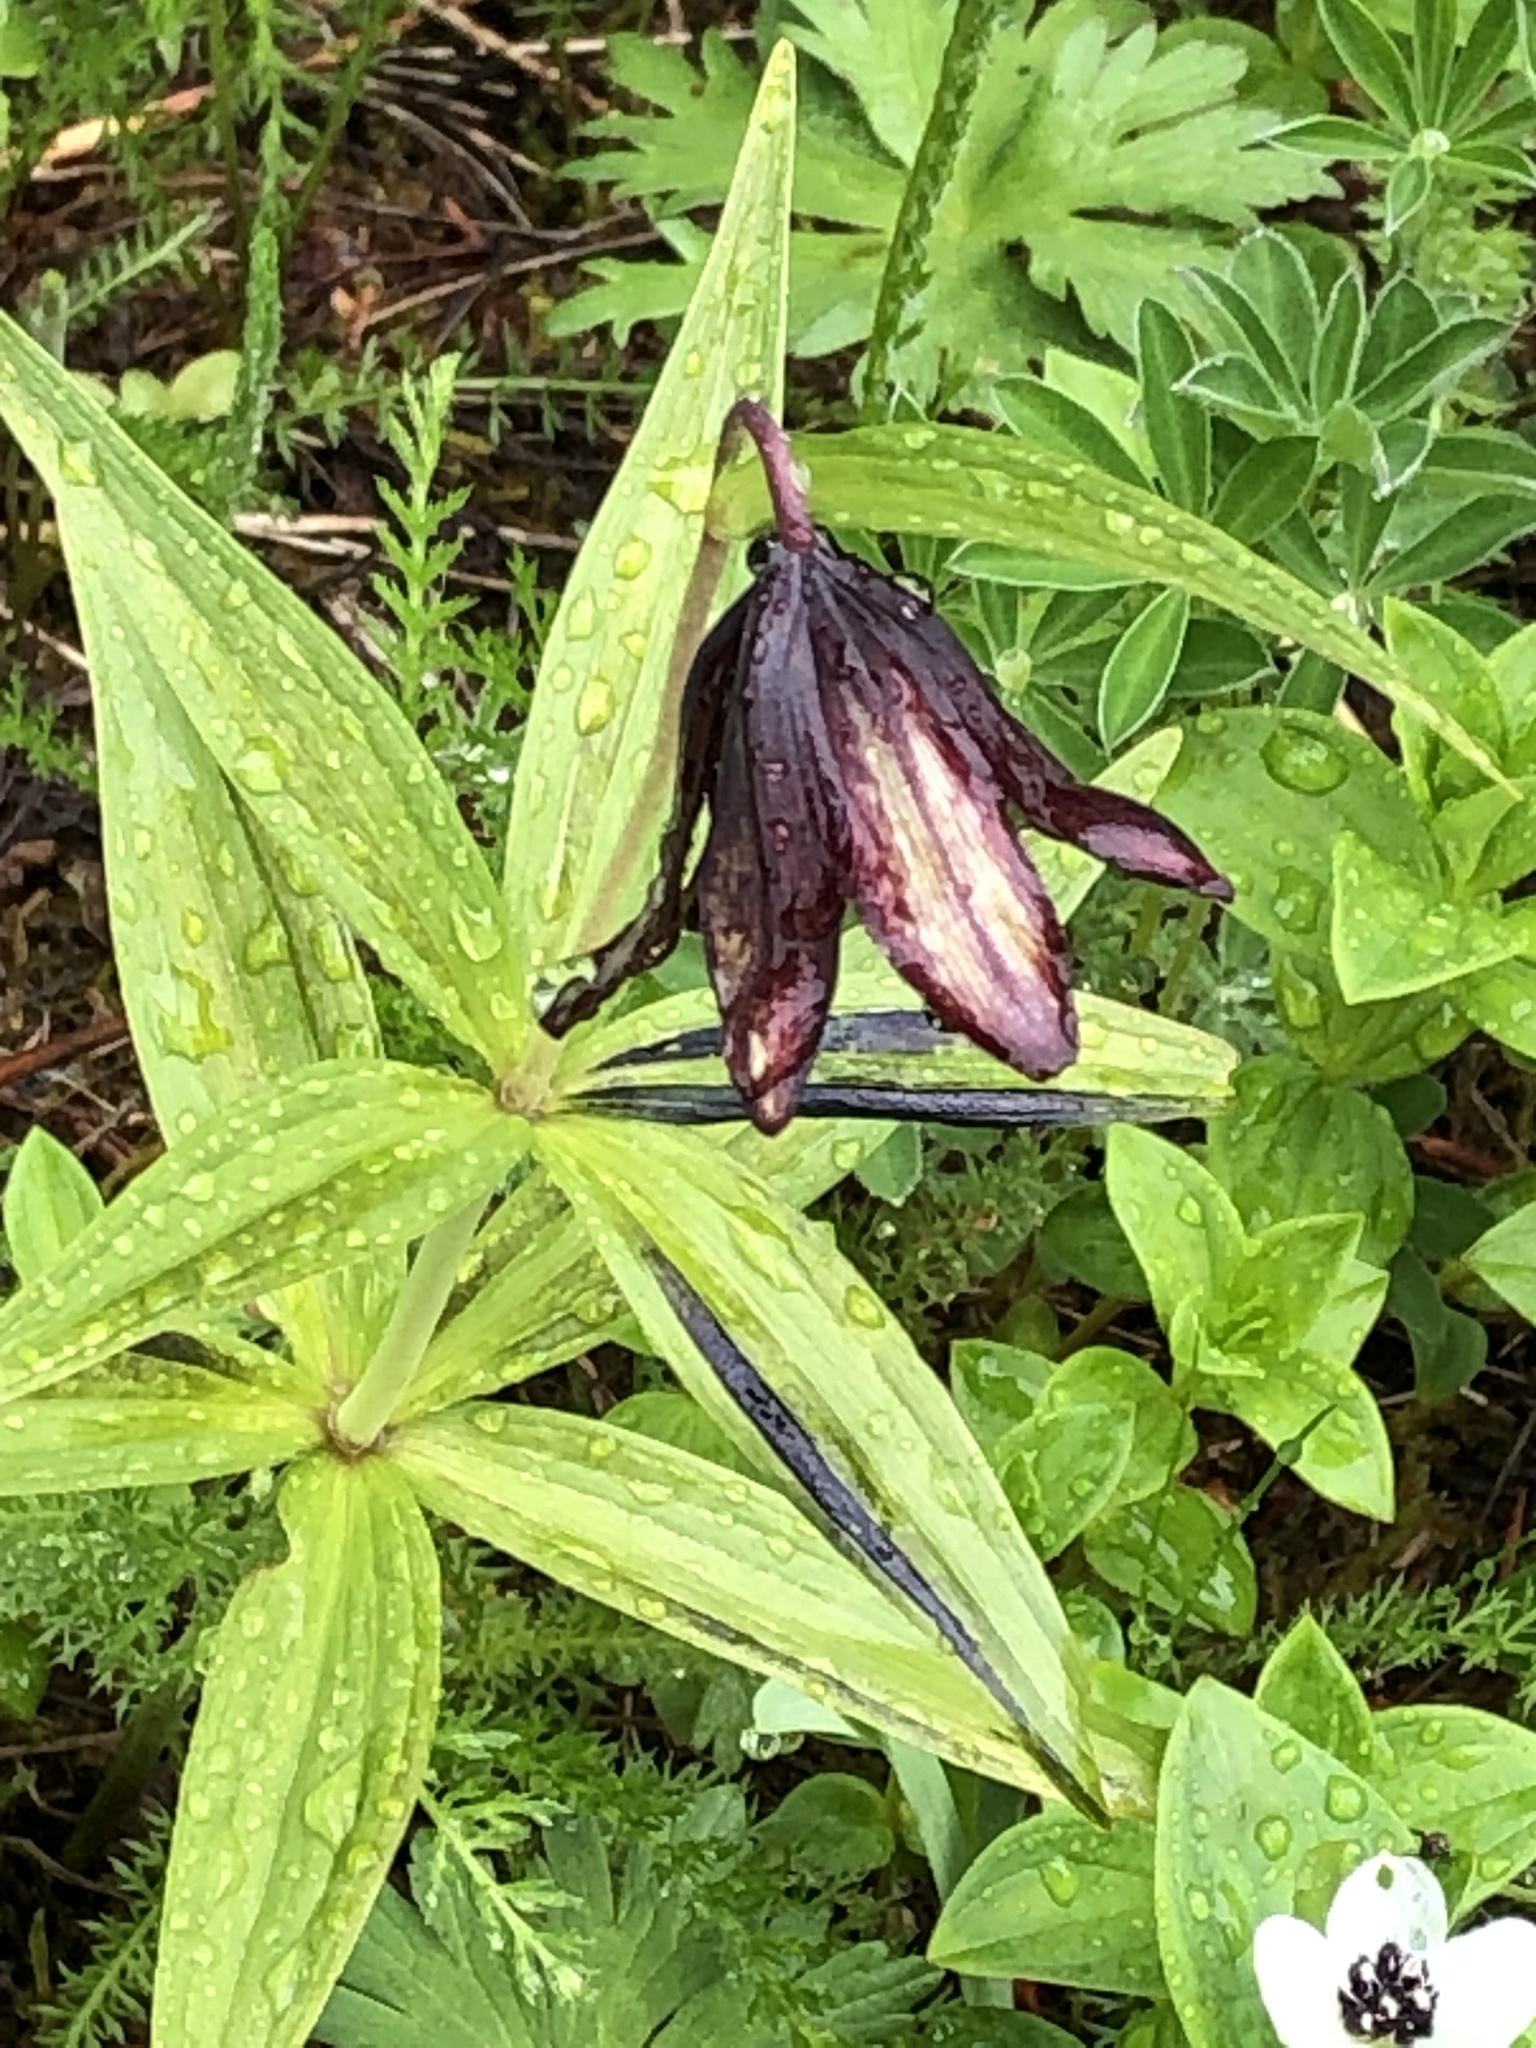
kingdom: Plantae
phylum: Tracheophyta
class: Liliopsida
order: Liliales
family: Liliaceae
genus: Fritillaria
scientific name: Fritillaria camschatcensis
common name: Kamchatka fritillary
